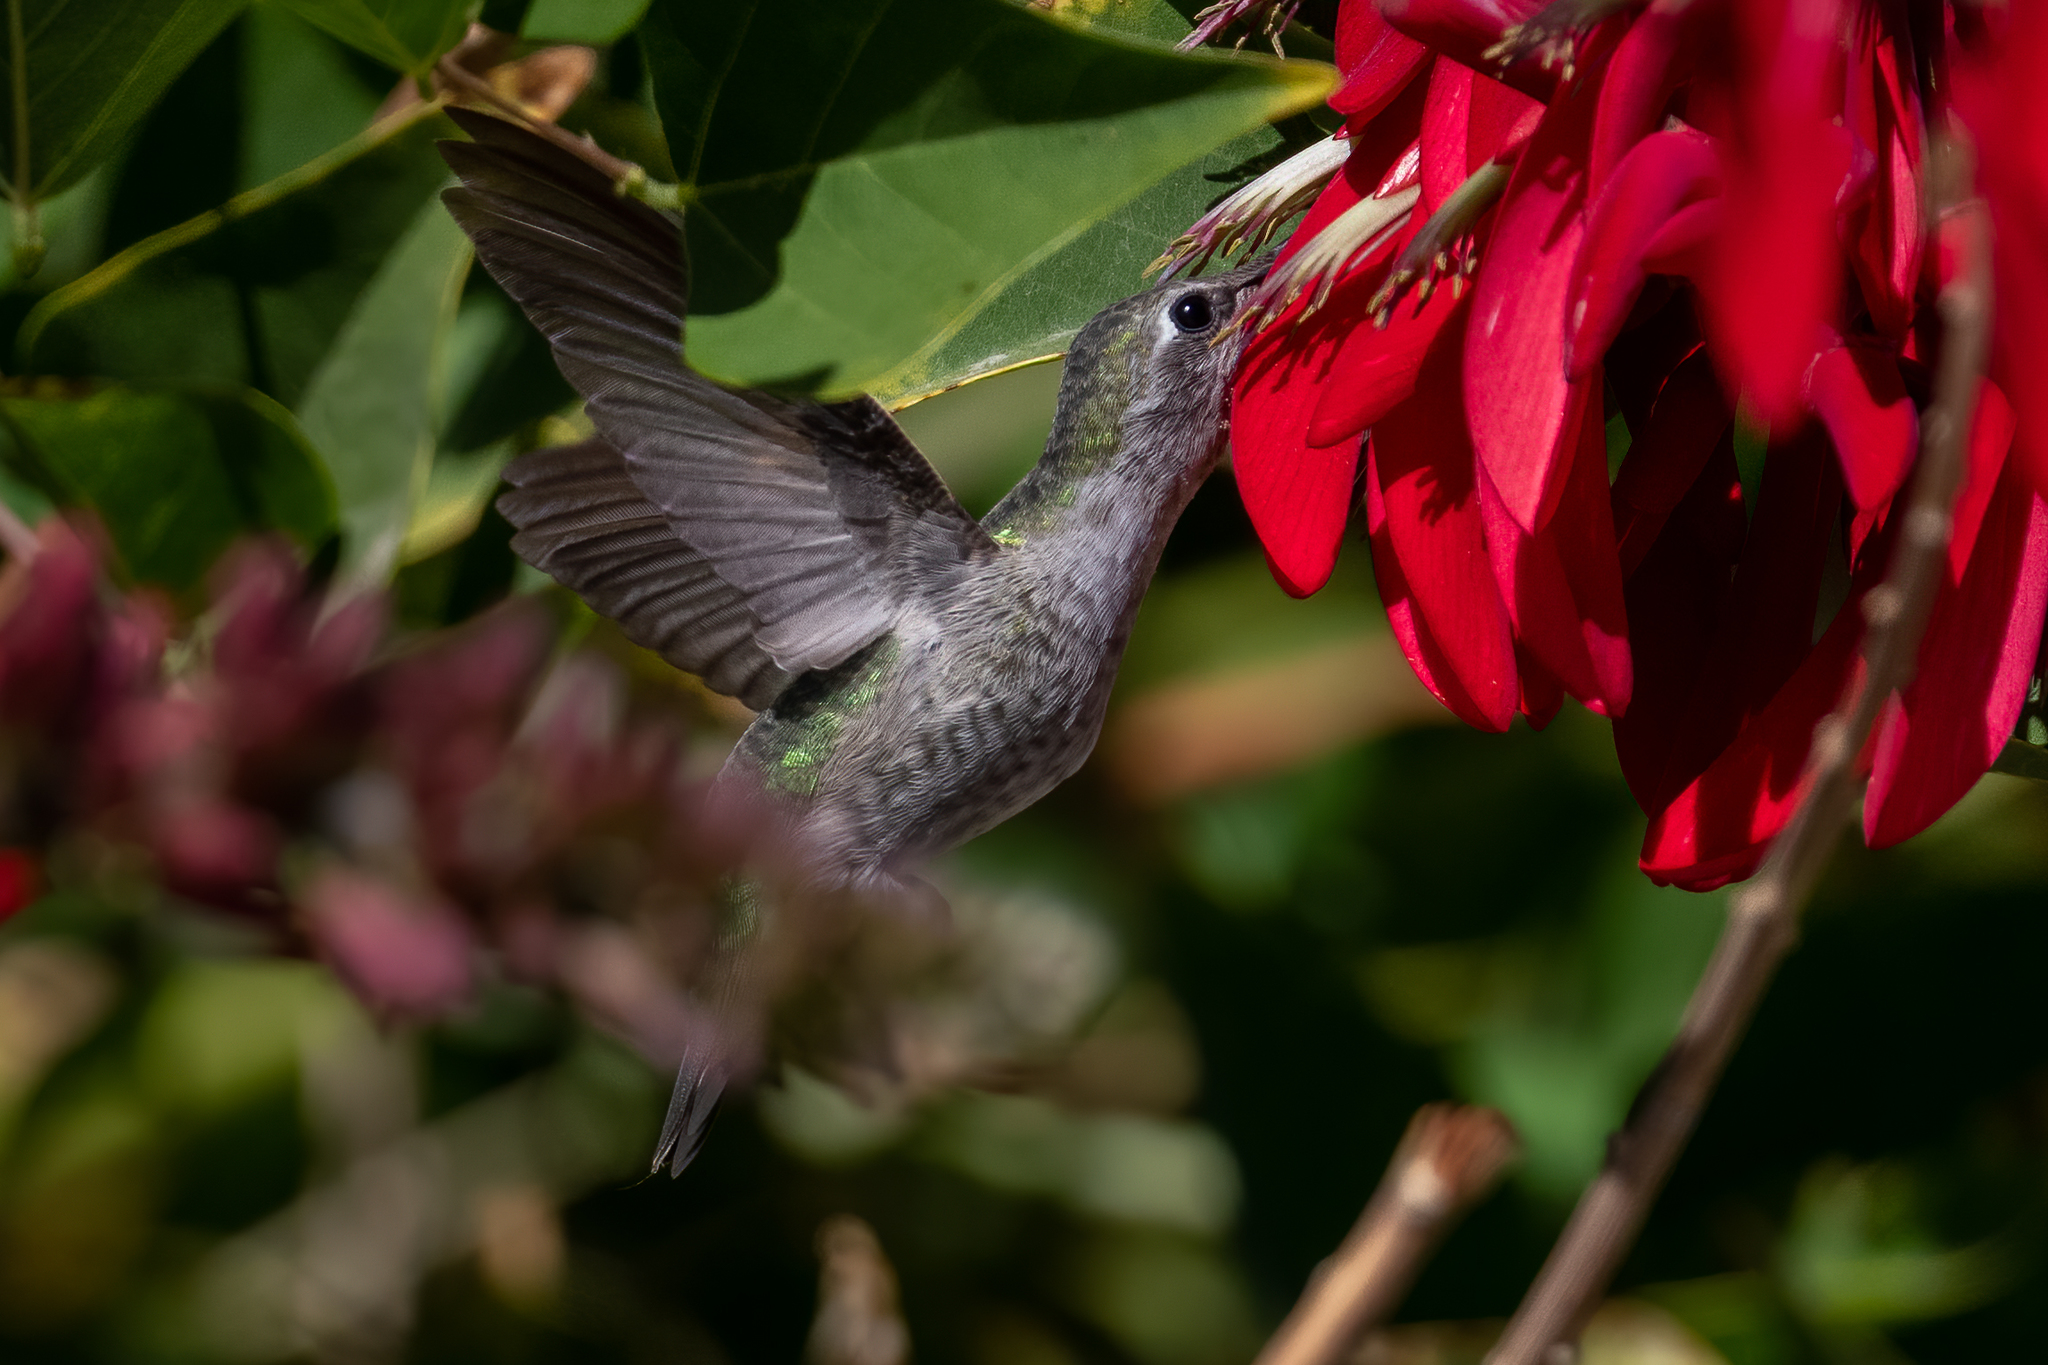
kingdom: Animalia
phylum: Chordata
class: Aves
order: Apodiformes
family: Trochilidae
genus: Calypte
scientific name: Calypte anna
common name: Anna's hummingbird
